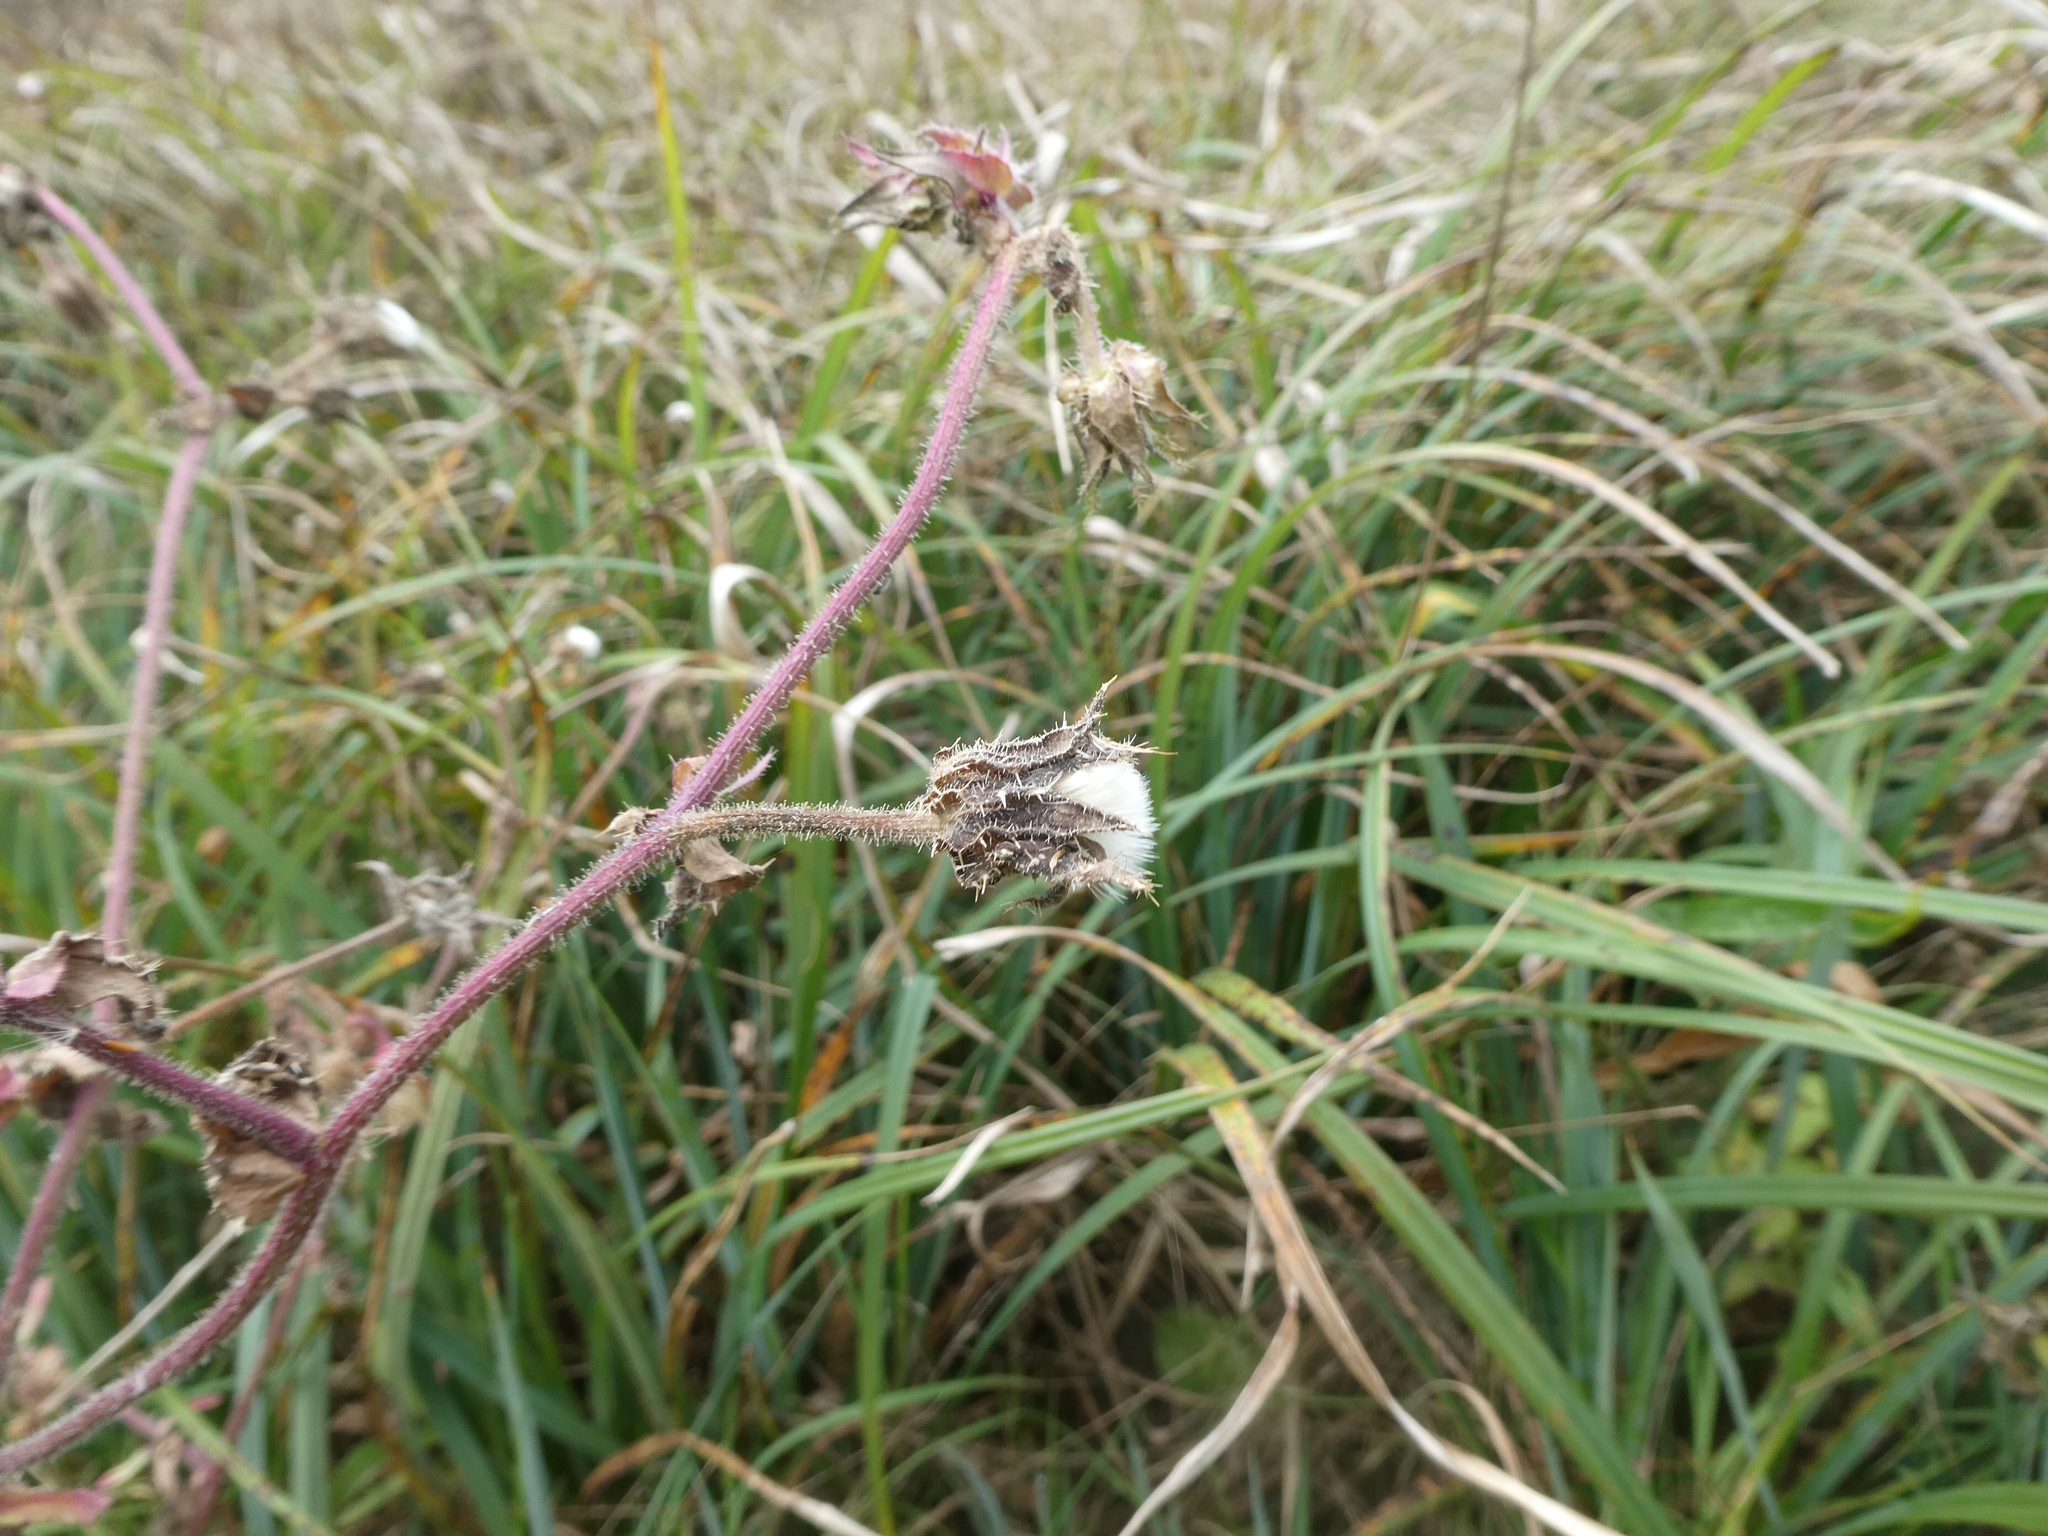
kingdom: Plantae
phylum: Tracheophyta
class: Magnoliopsida
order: Asterales
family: Asteraceae
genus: Helminthotheca
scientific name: Helminthotheca echioides
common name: Ox-tongue
